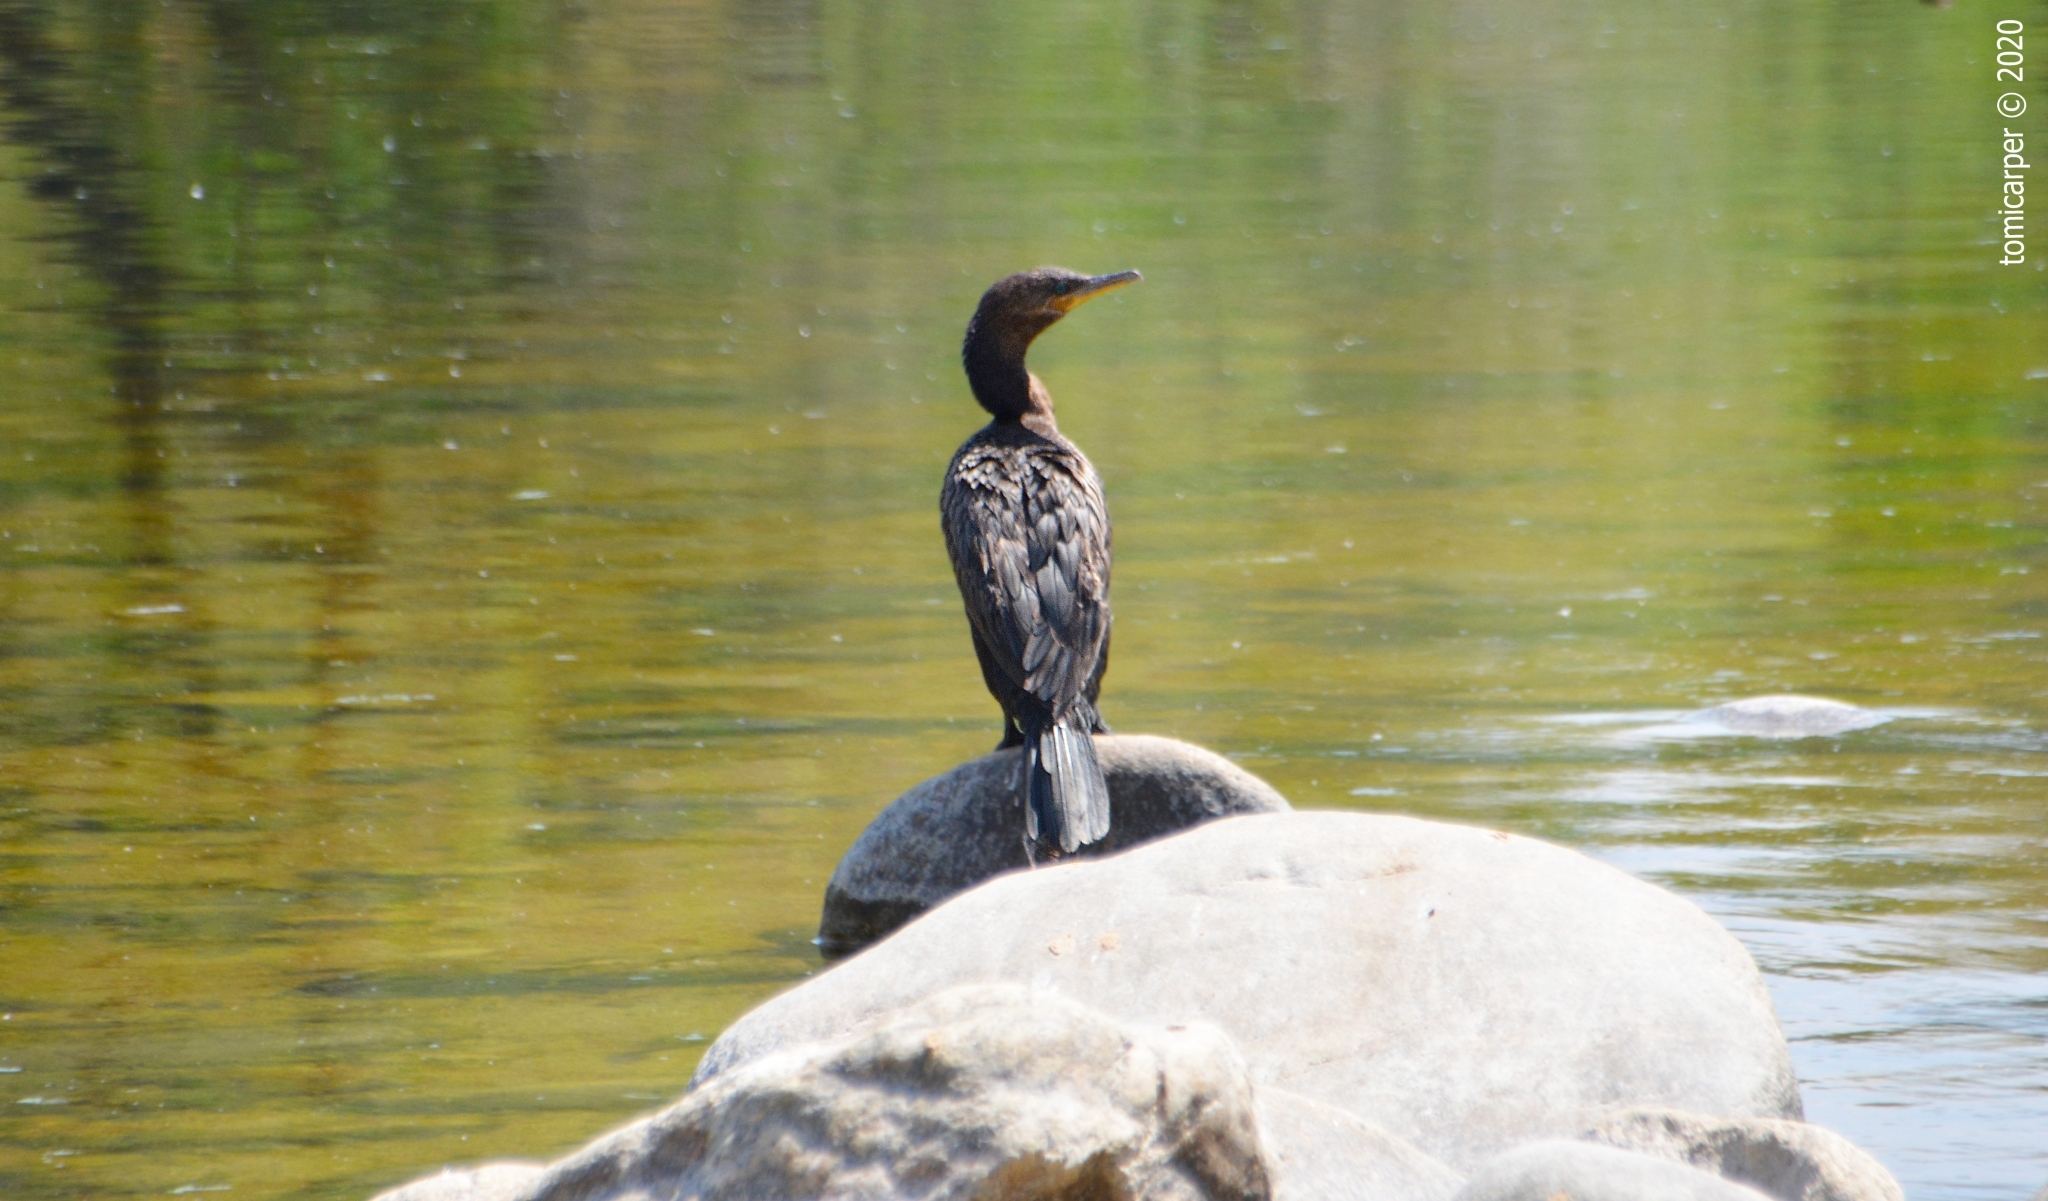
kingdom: Animalia
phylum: Chordata
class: Aves
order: Suliformes
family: Phalacrocoracidae
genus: Phalacrocorax
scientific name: Phalacrocorax brasilianus
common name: Neotropic cormorant
